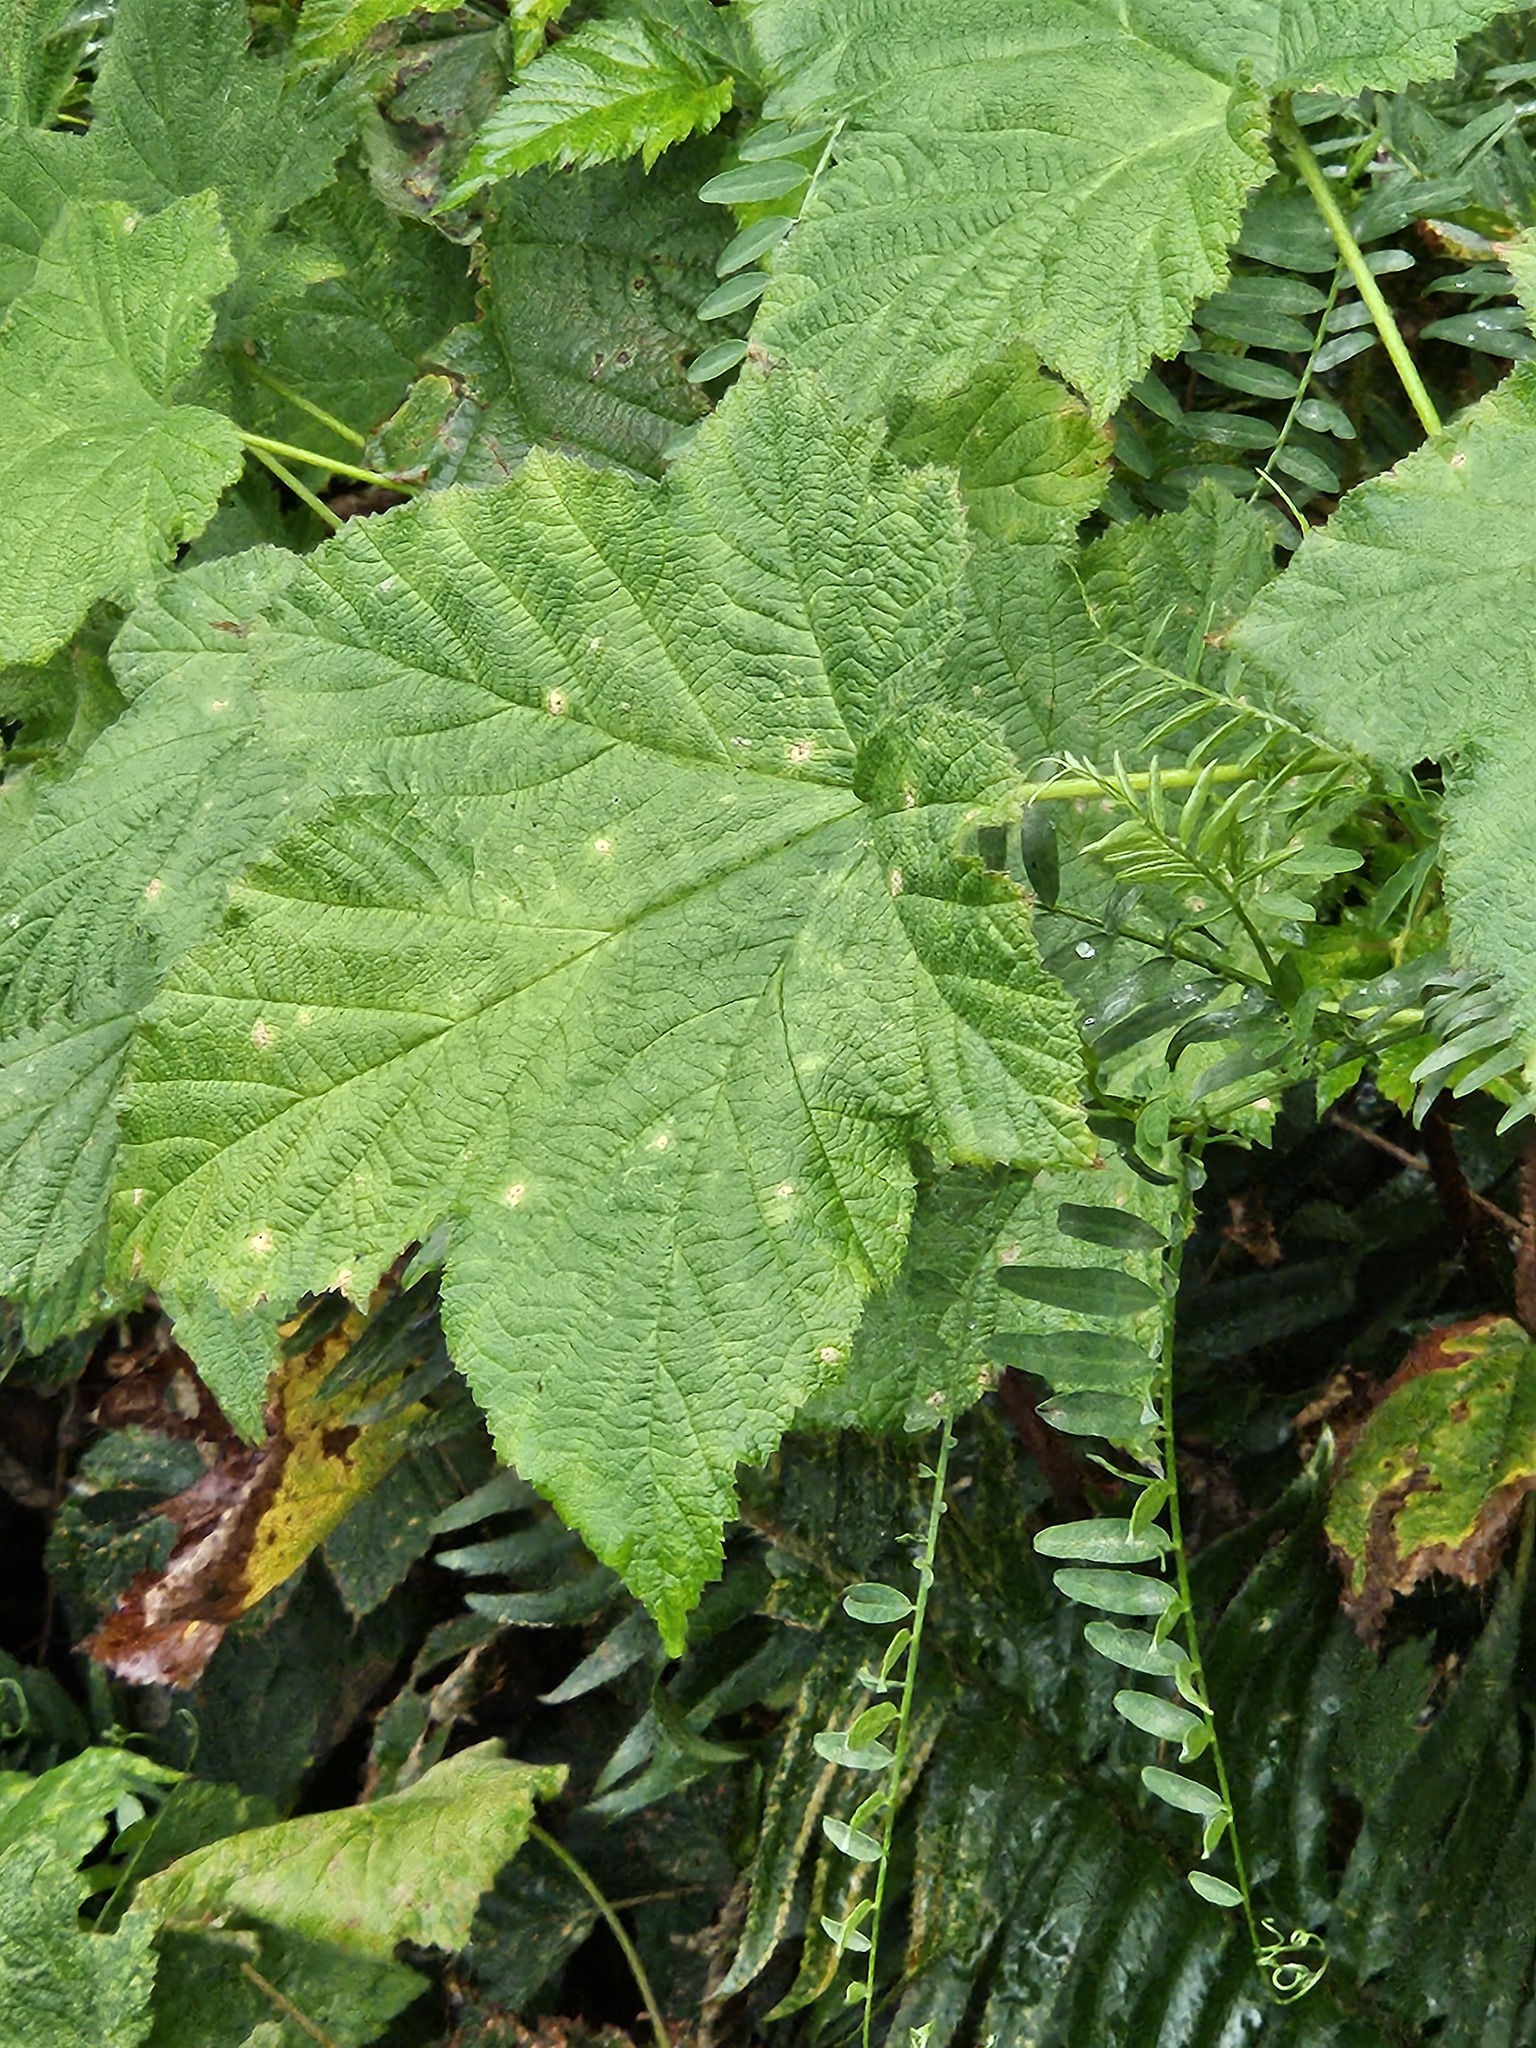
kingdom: Plantae
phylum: Tracheophyta
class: Magnoliopsida
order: Rosales
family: Rosaceae
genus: Rubus
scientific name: Rubus parviflorus
